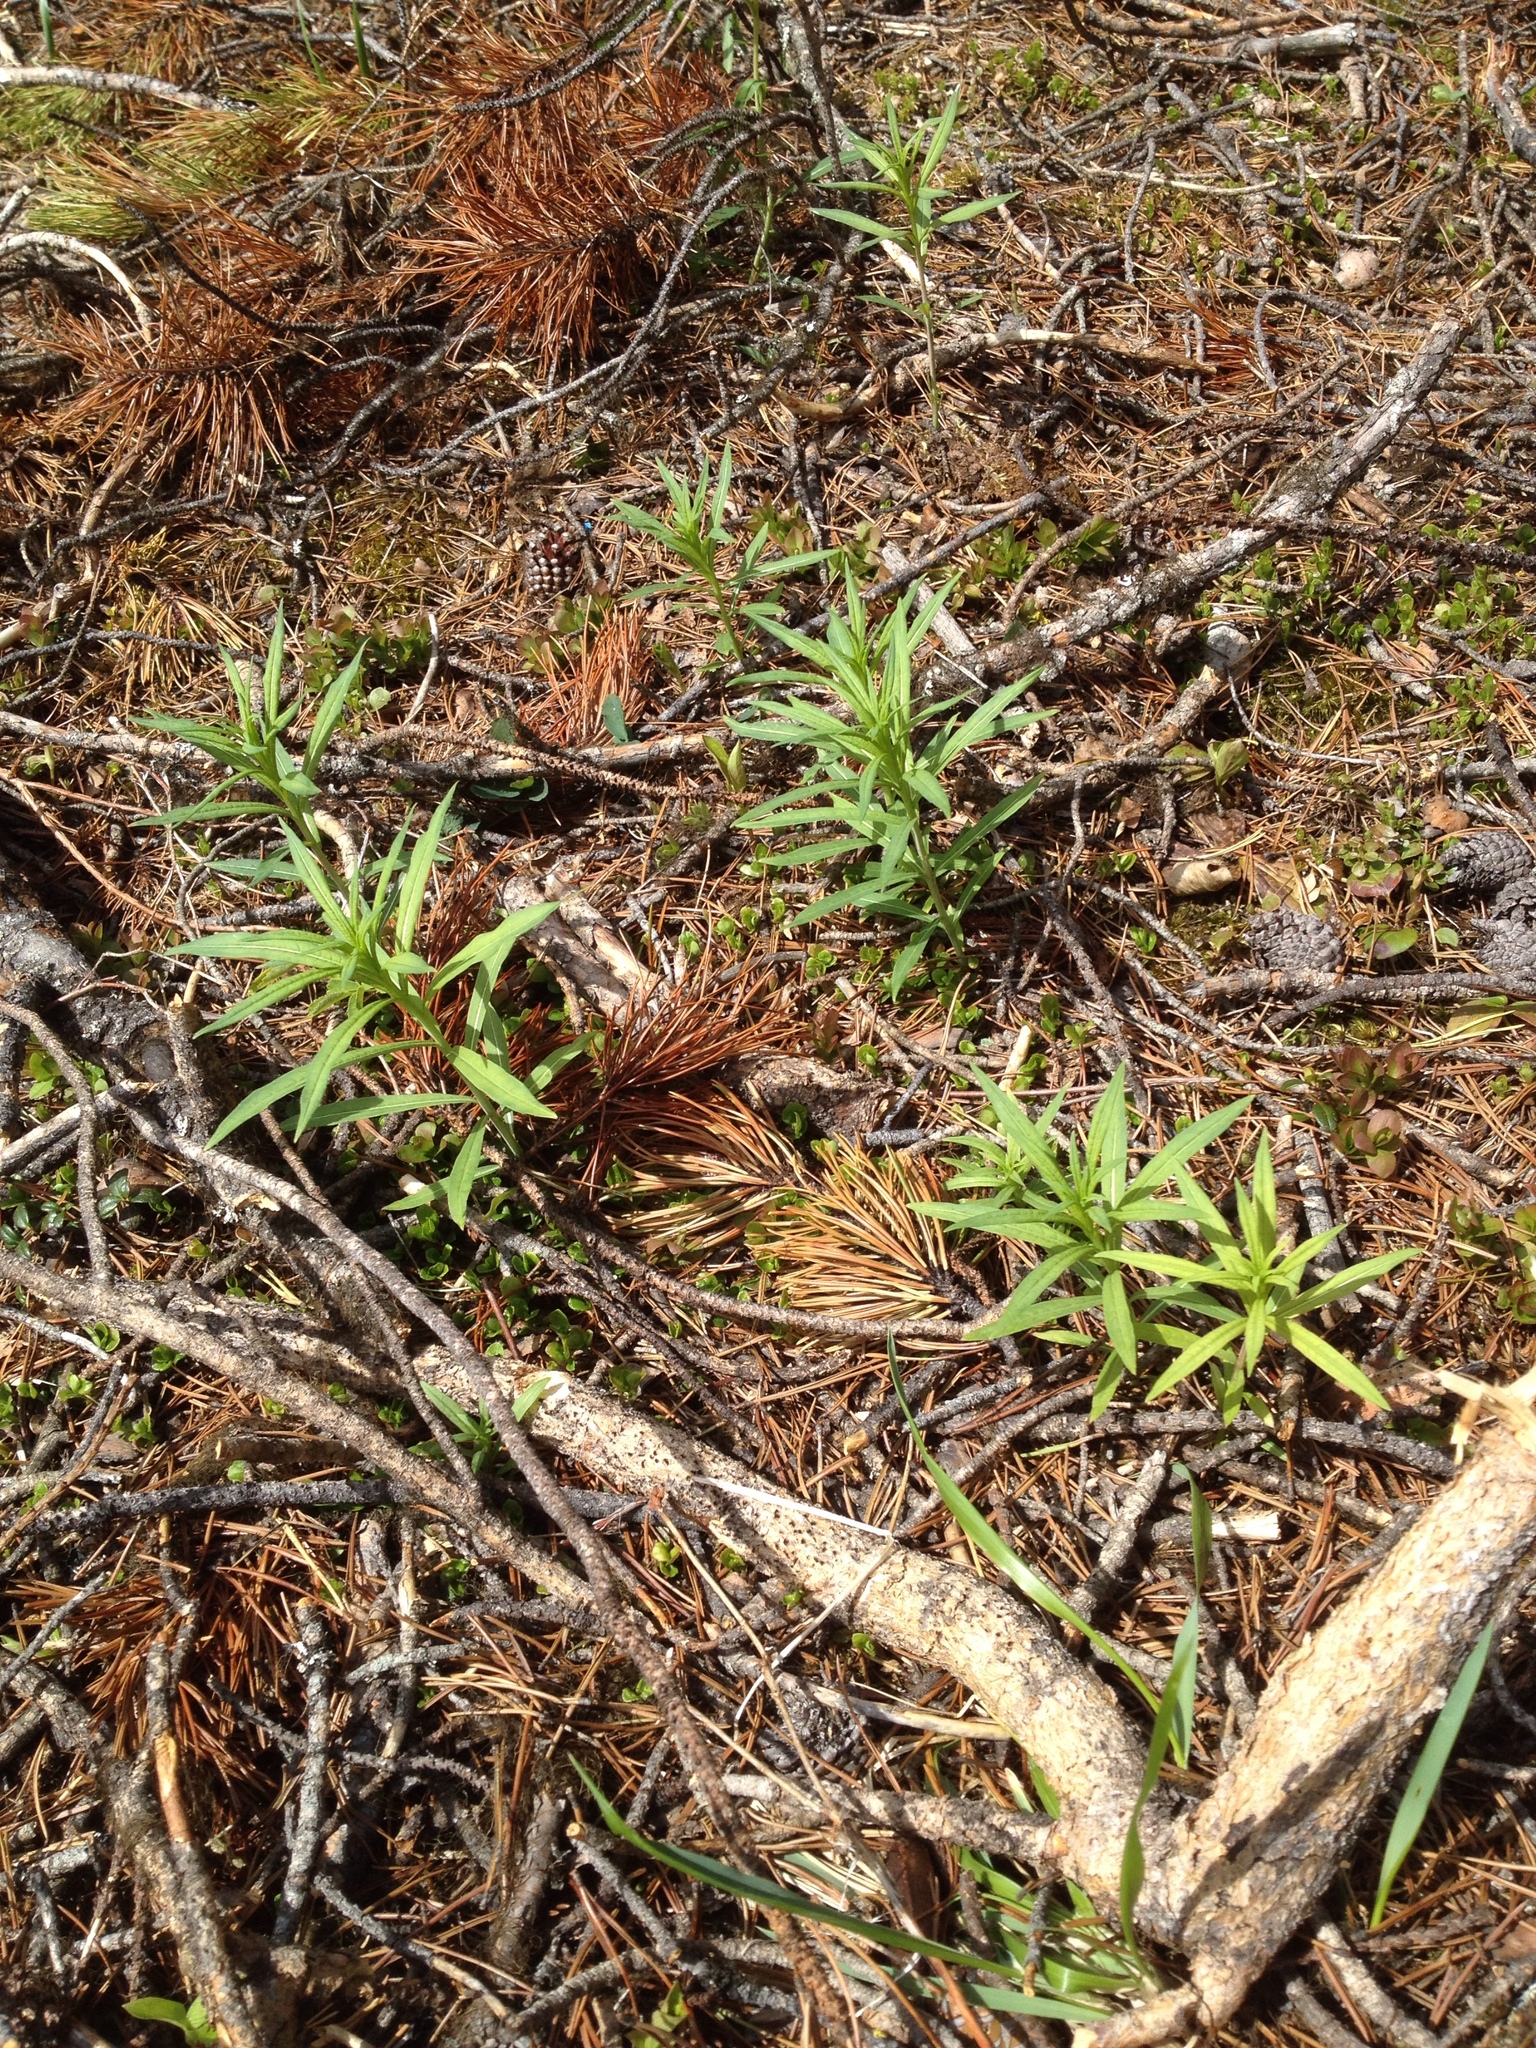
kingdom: Plantae
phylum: Tracheophyta
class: Magnoliopsida
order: Myrtales
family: Onagraceae
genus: Chamaenerion
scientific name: Chamaenerion angustifolium
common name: Fireweed
